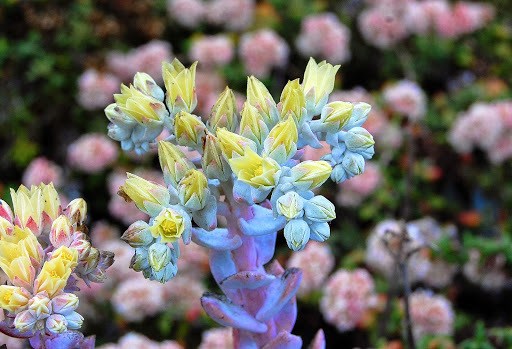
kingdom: Plantae
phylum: Tracheophyta
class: Magnoliopsida
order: Saxifragales
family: Crassulaceae
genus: Dudleya
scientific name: Dudleya farinosa
